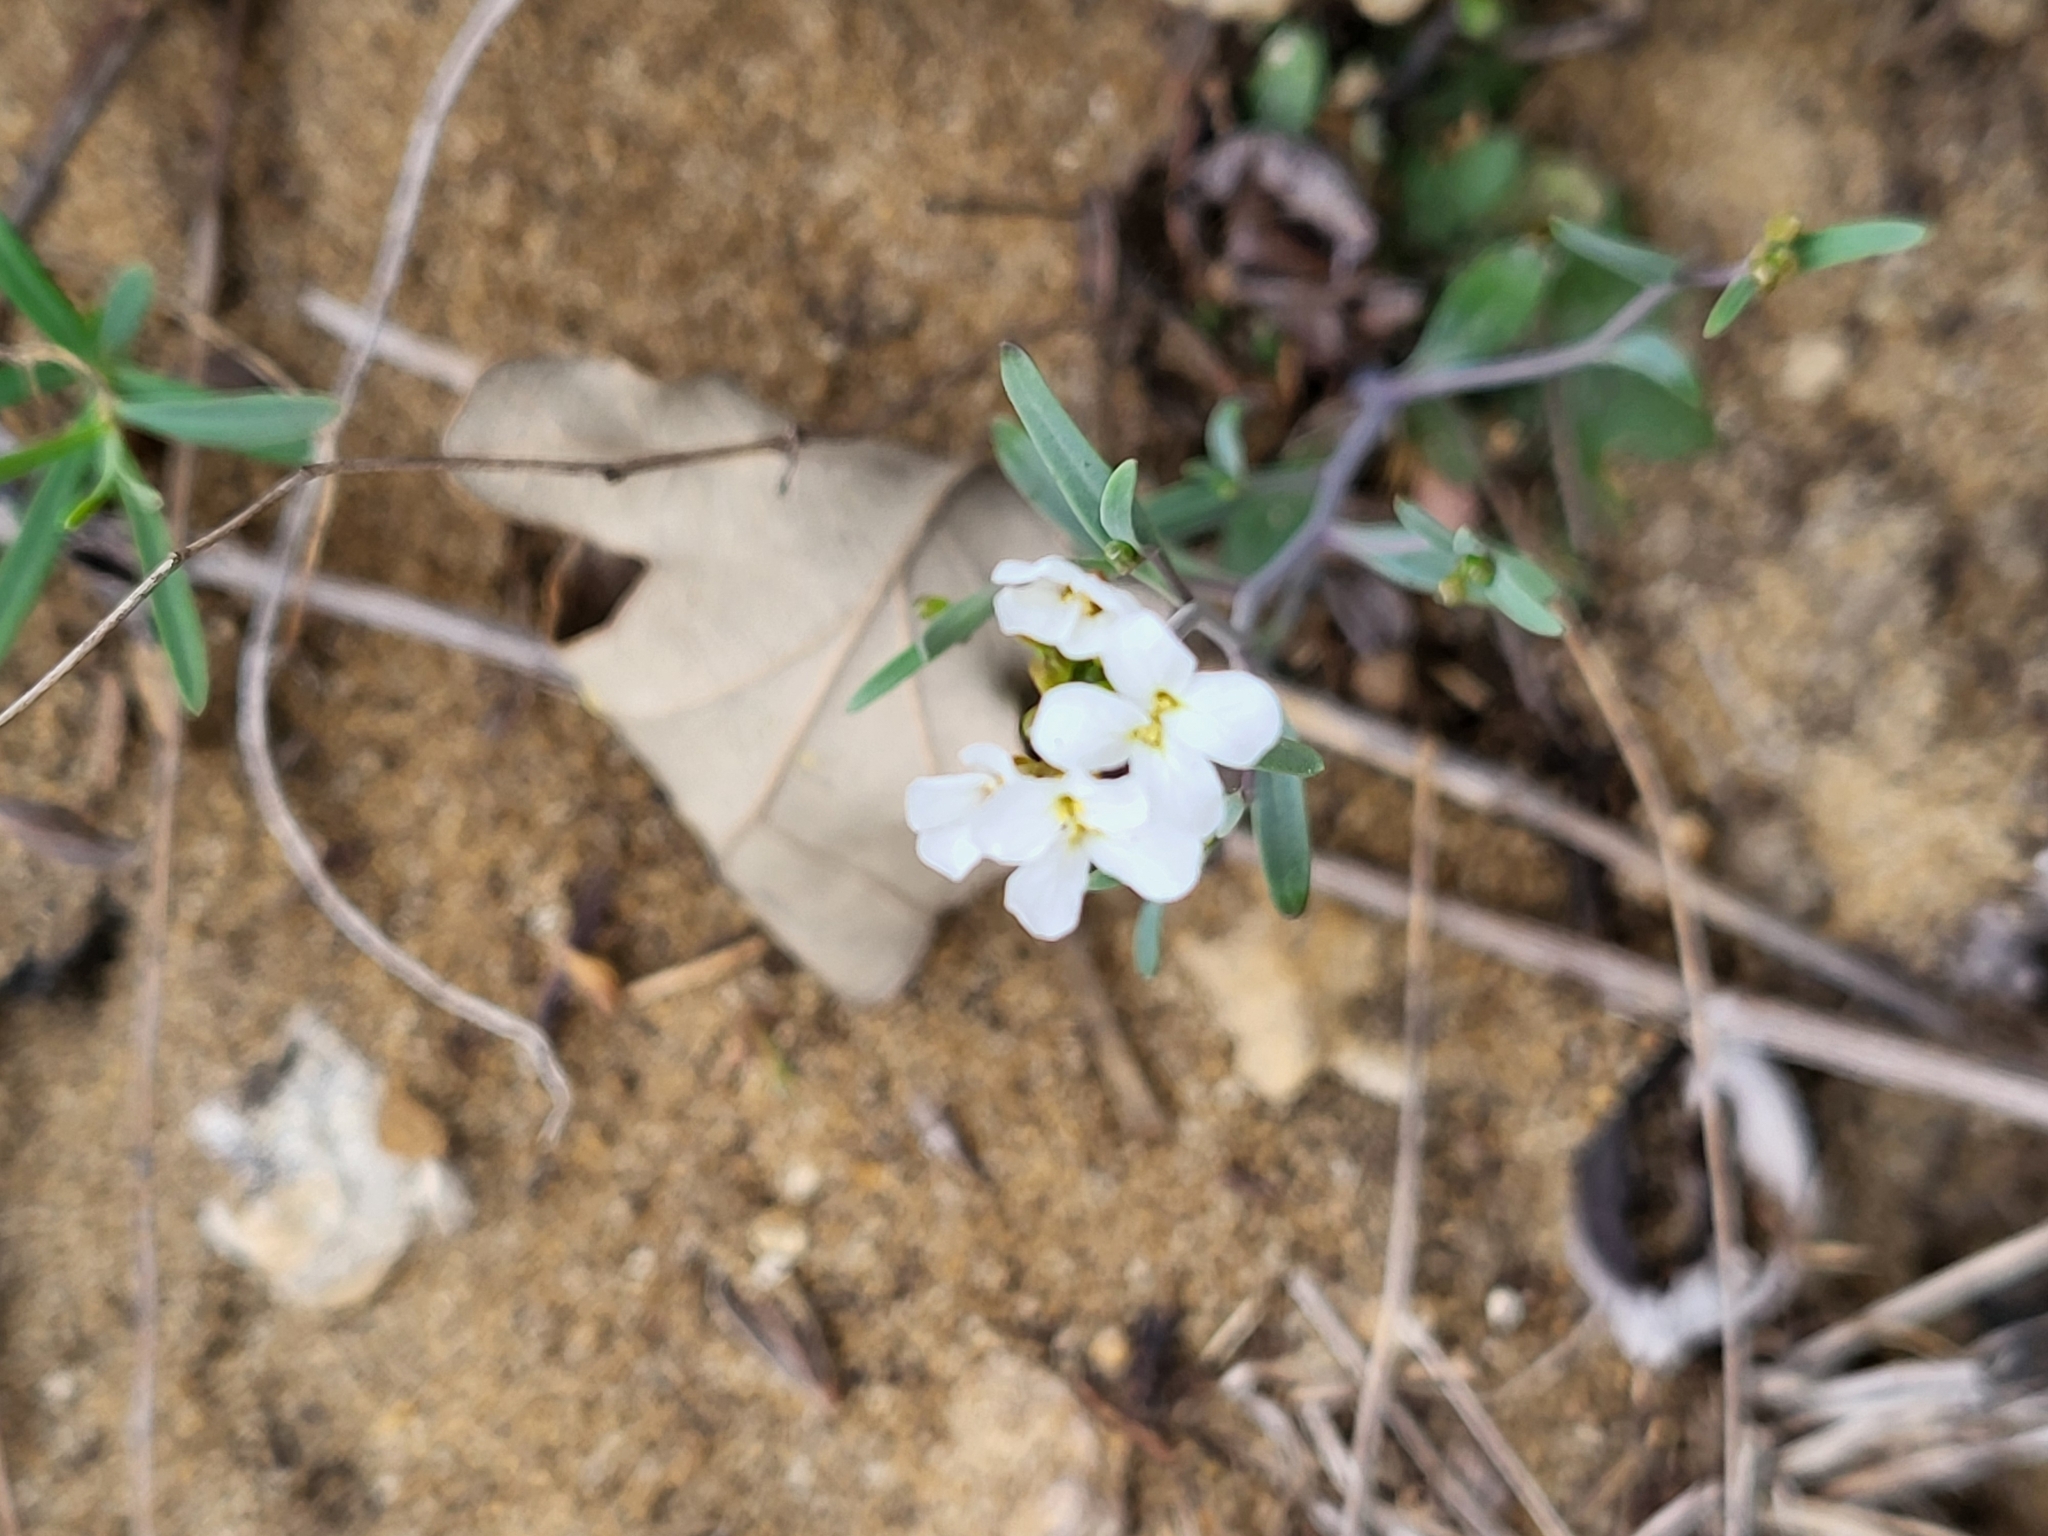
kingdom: Plantae
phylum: Tracheophyta
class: Magnoliopsida
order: Brassicales
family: Brassicaceae
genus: Arabidopsis
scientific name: Arabidopsis lyrata
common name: Lyrate rockcress
